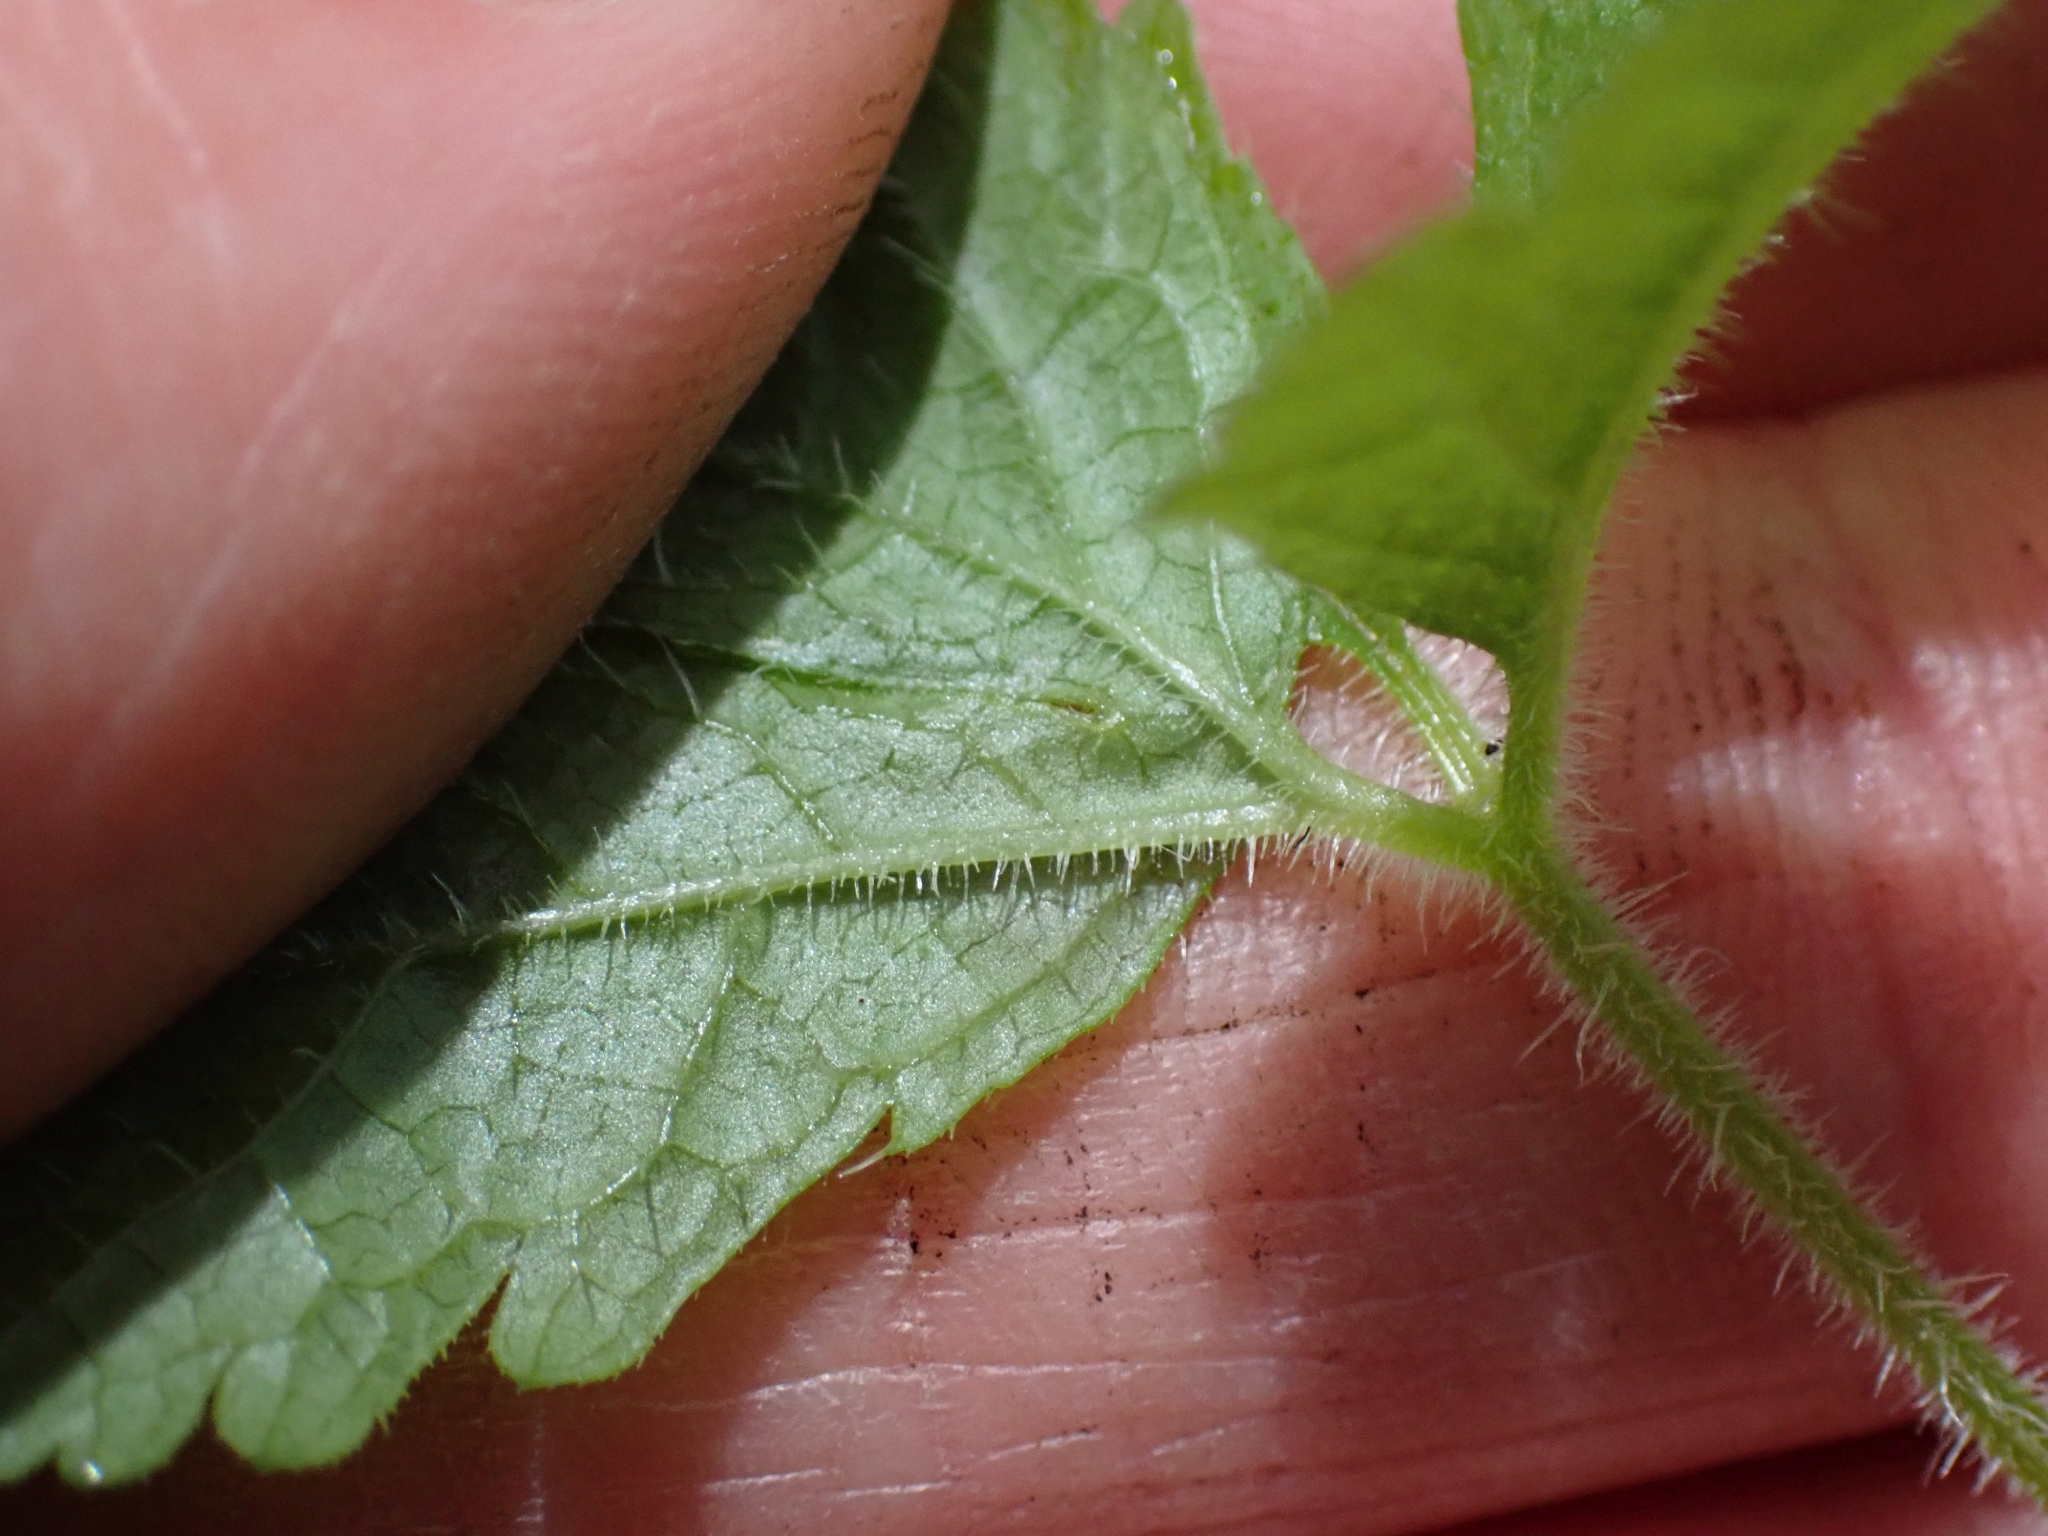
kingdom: Plantae
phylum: Tracheophyta
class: Magnoliopsida
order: Saxifragales
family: Saxifragaceae
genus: Tiarella
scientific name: Tiarella trifoliata
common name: Sugar-scoop
